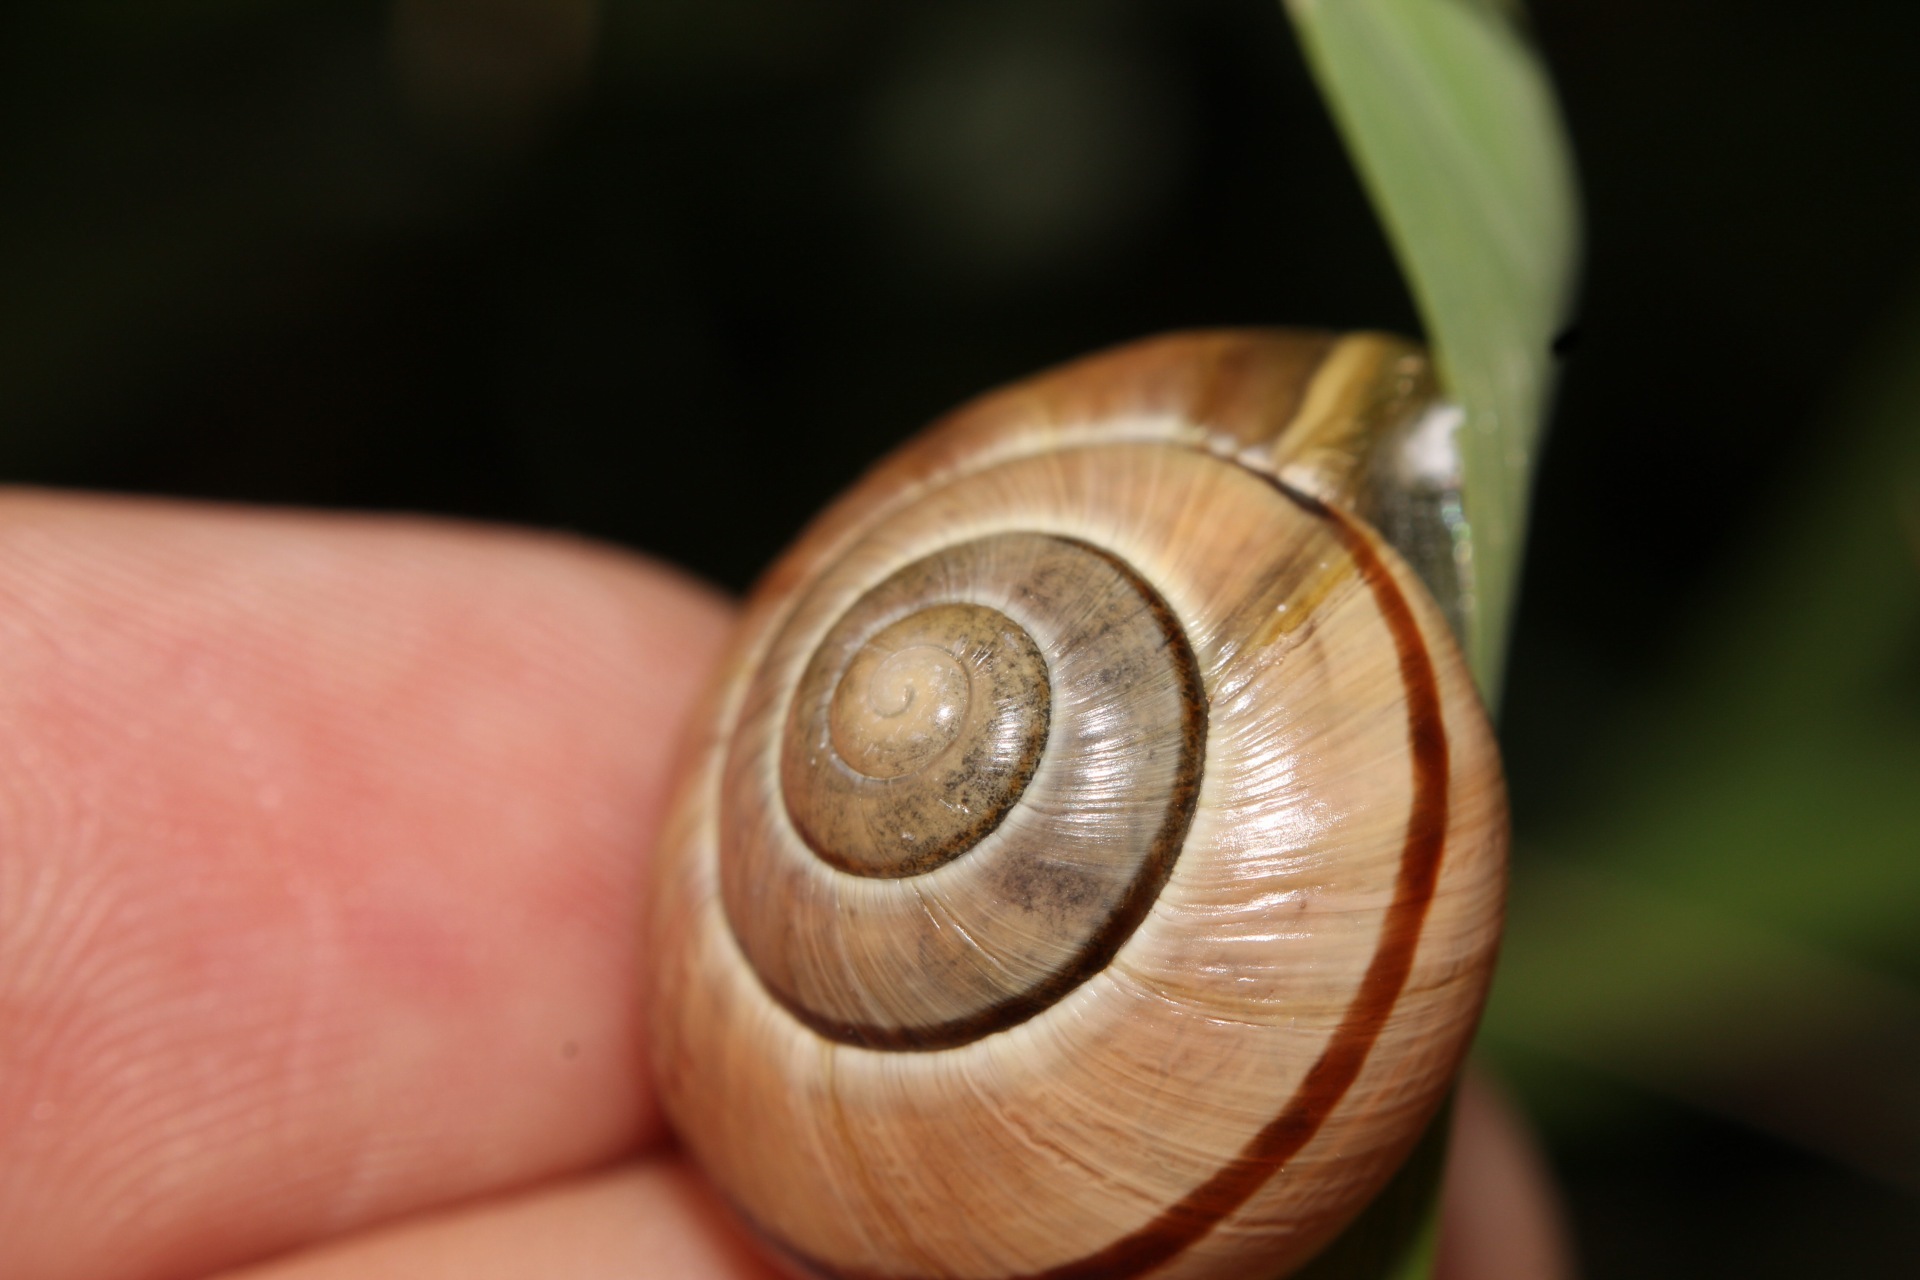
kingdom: Animalia
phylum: Mollusca
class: Gastropoda
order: Stylommatophora
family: Helicidae
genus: Cepaea
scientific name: Cepaea nemoralis
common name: Grovesnail
